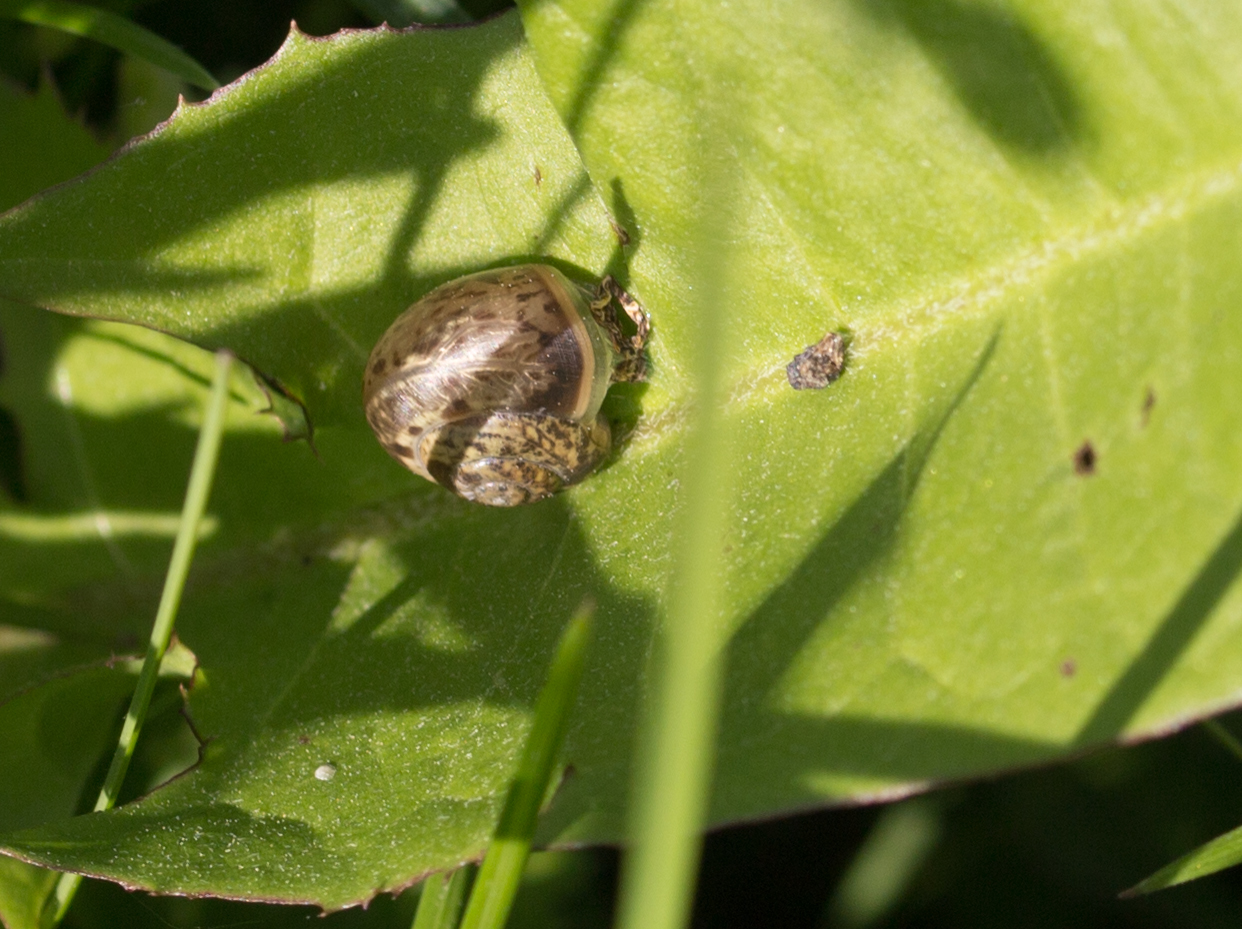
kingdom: Animalia
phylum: Mollusca
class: Gastropoda
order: Stylommatophora
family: Camaenidae
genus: Fruticicola
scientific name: Fruticicola fruticum
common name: Bush snail
